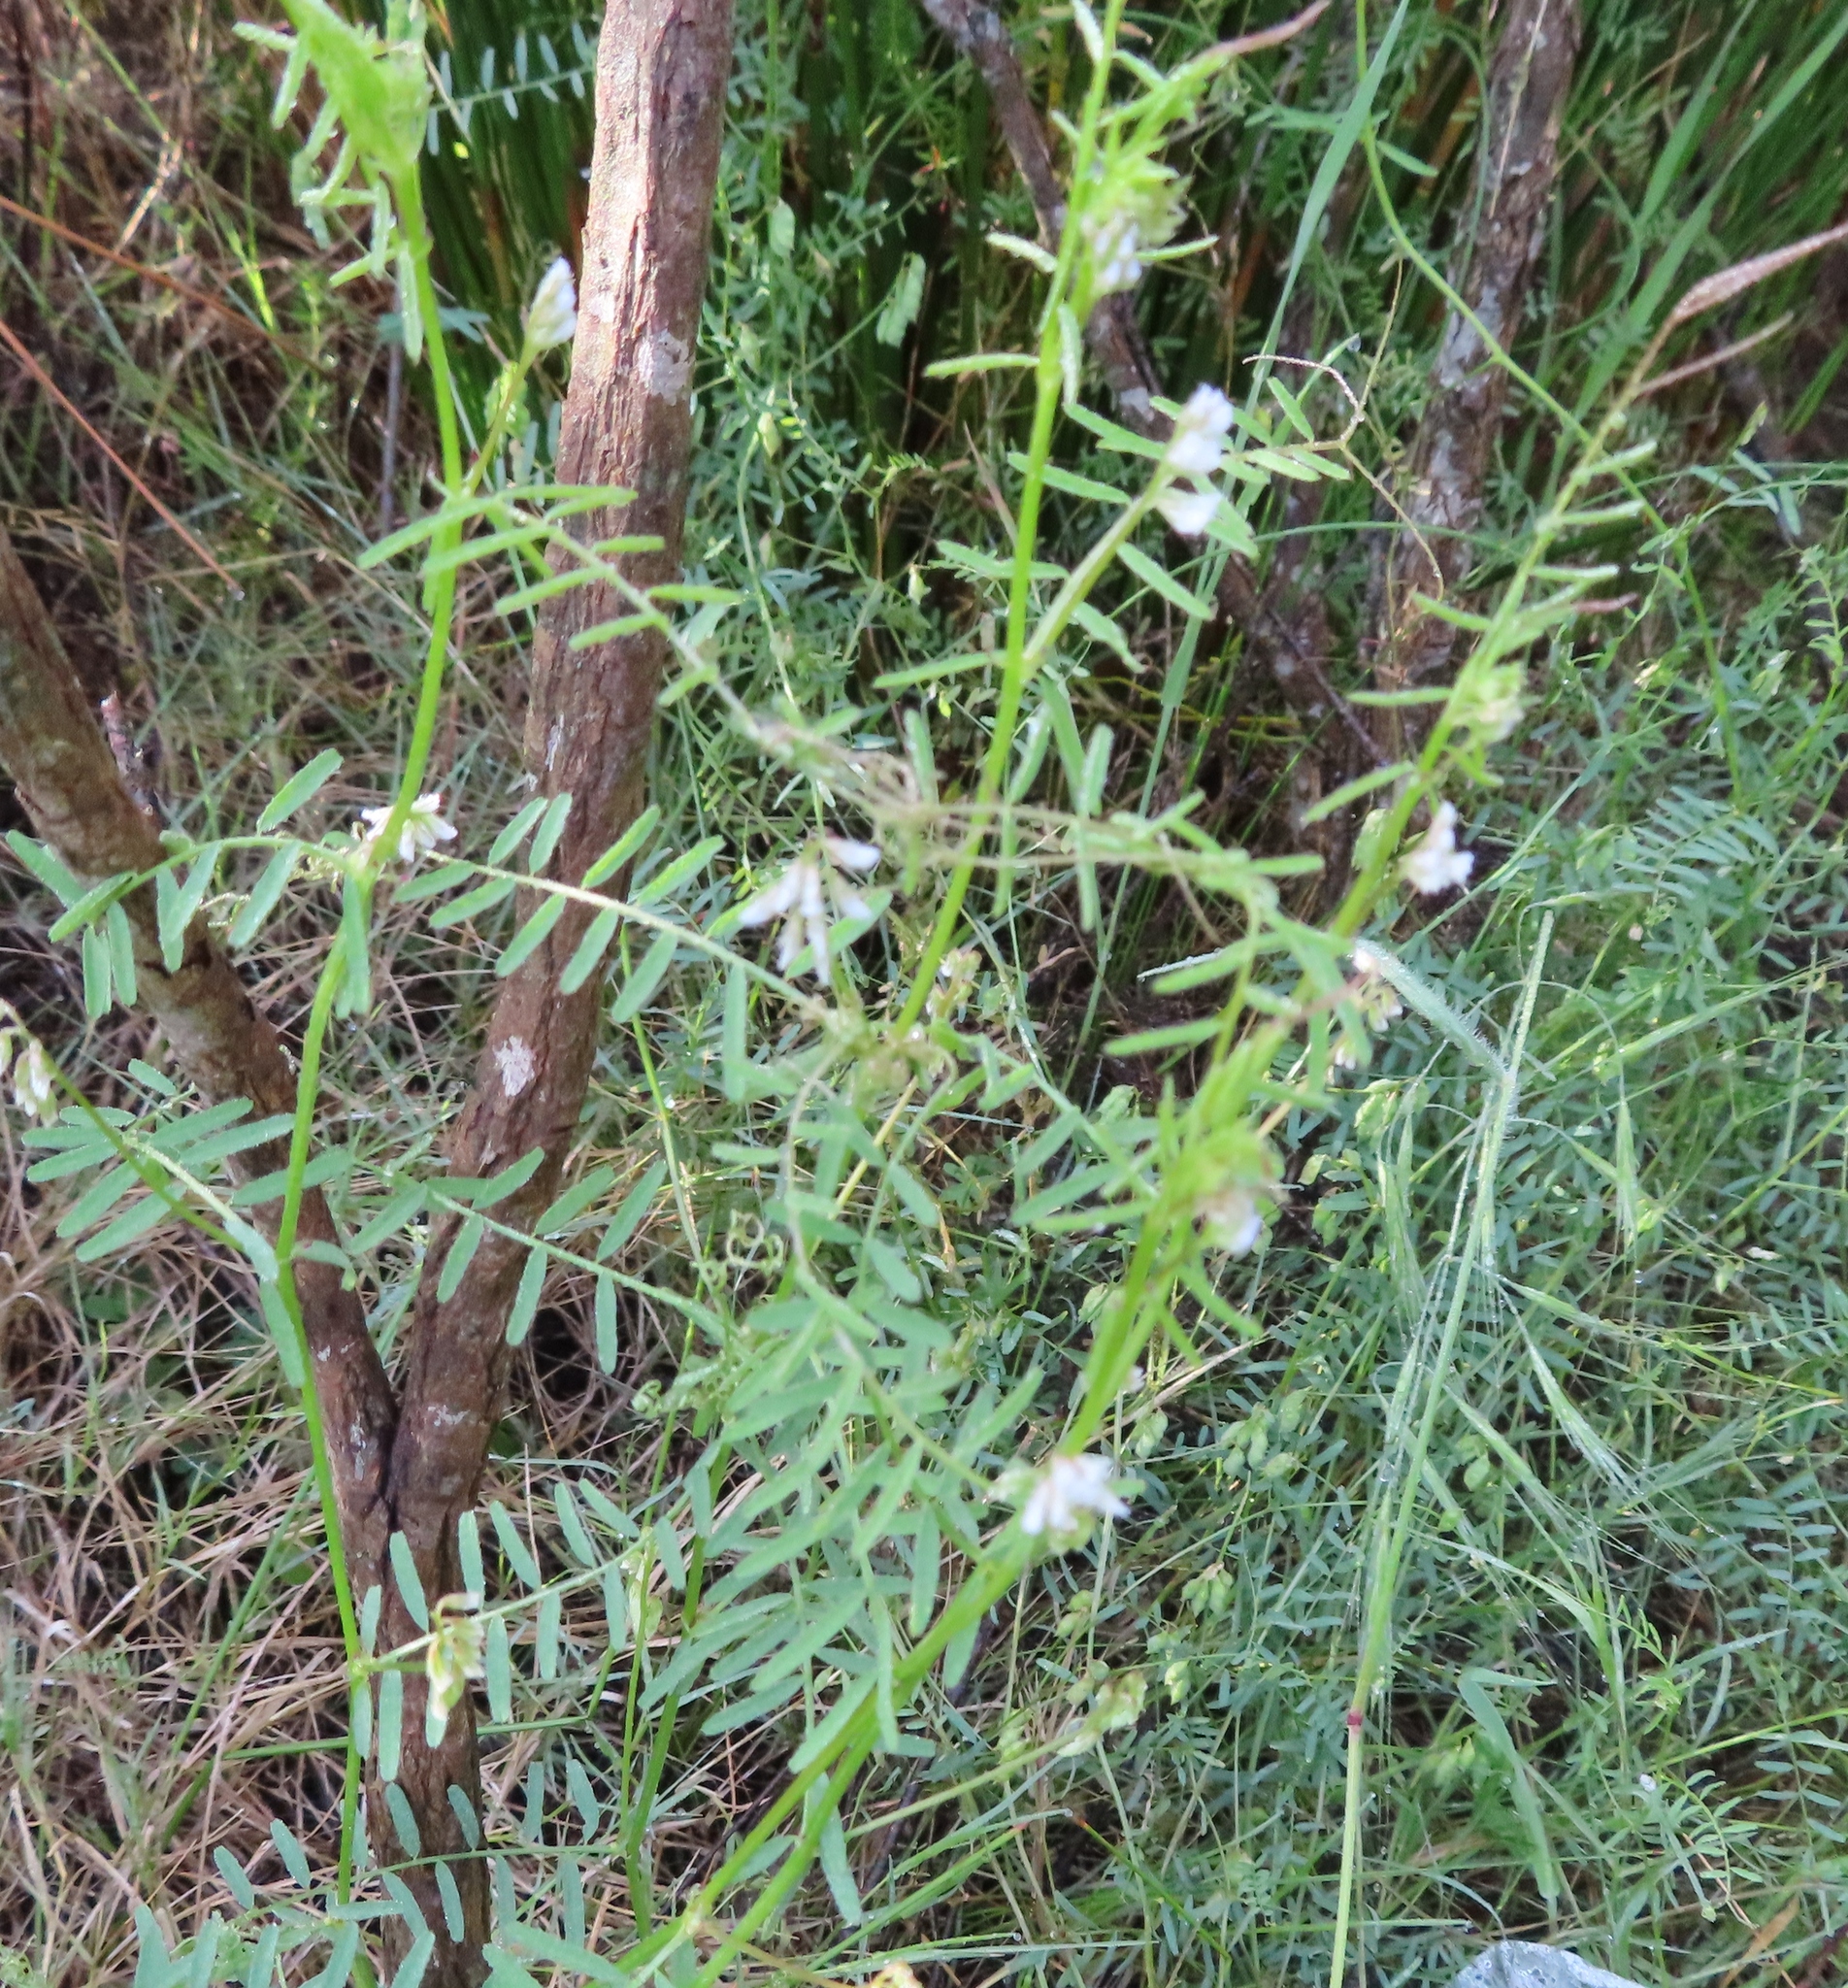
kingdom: Plantae
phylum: Tracheophyta
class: Magnoliopsida
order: Fabales
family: Fabaceae
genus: Vicia
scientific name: Vicia hirsuta
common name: Tiny vetch
